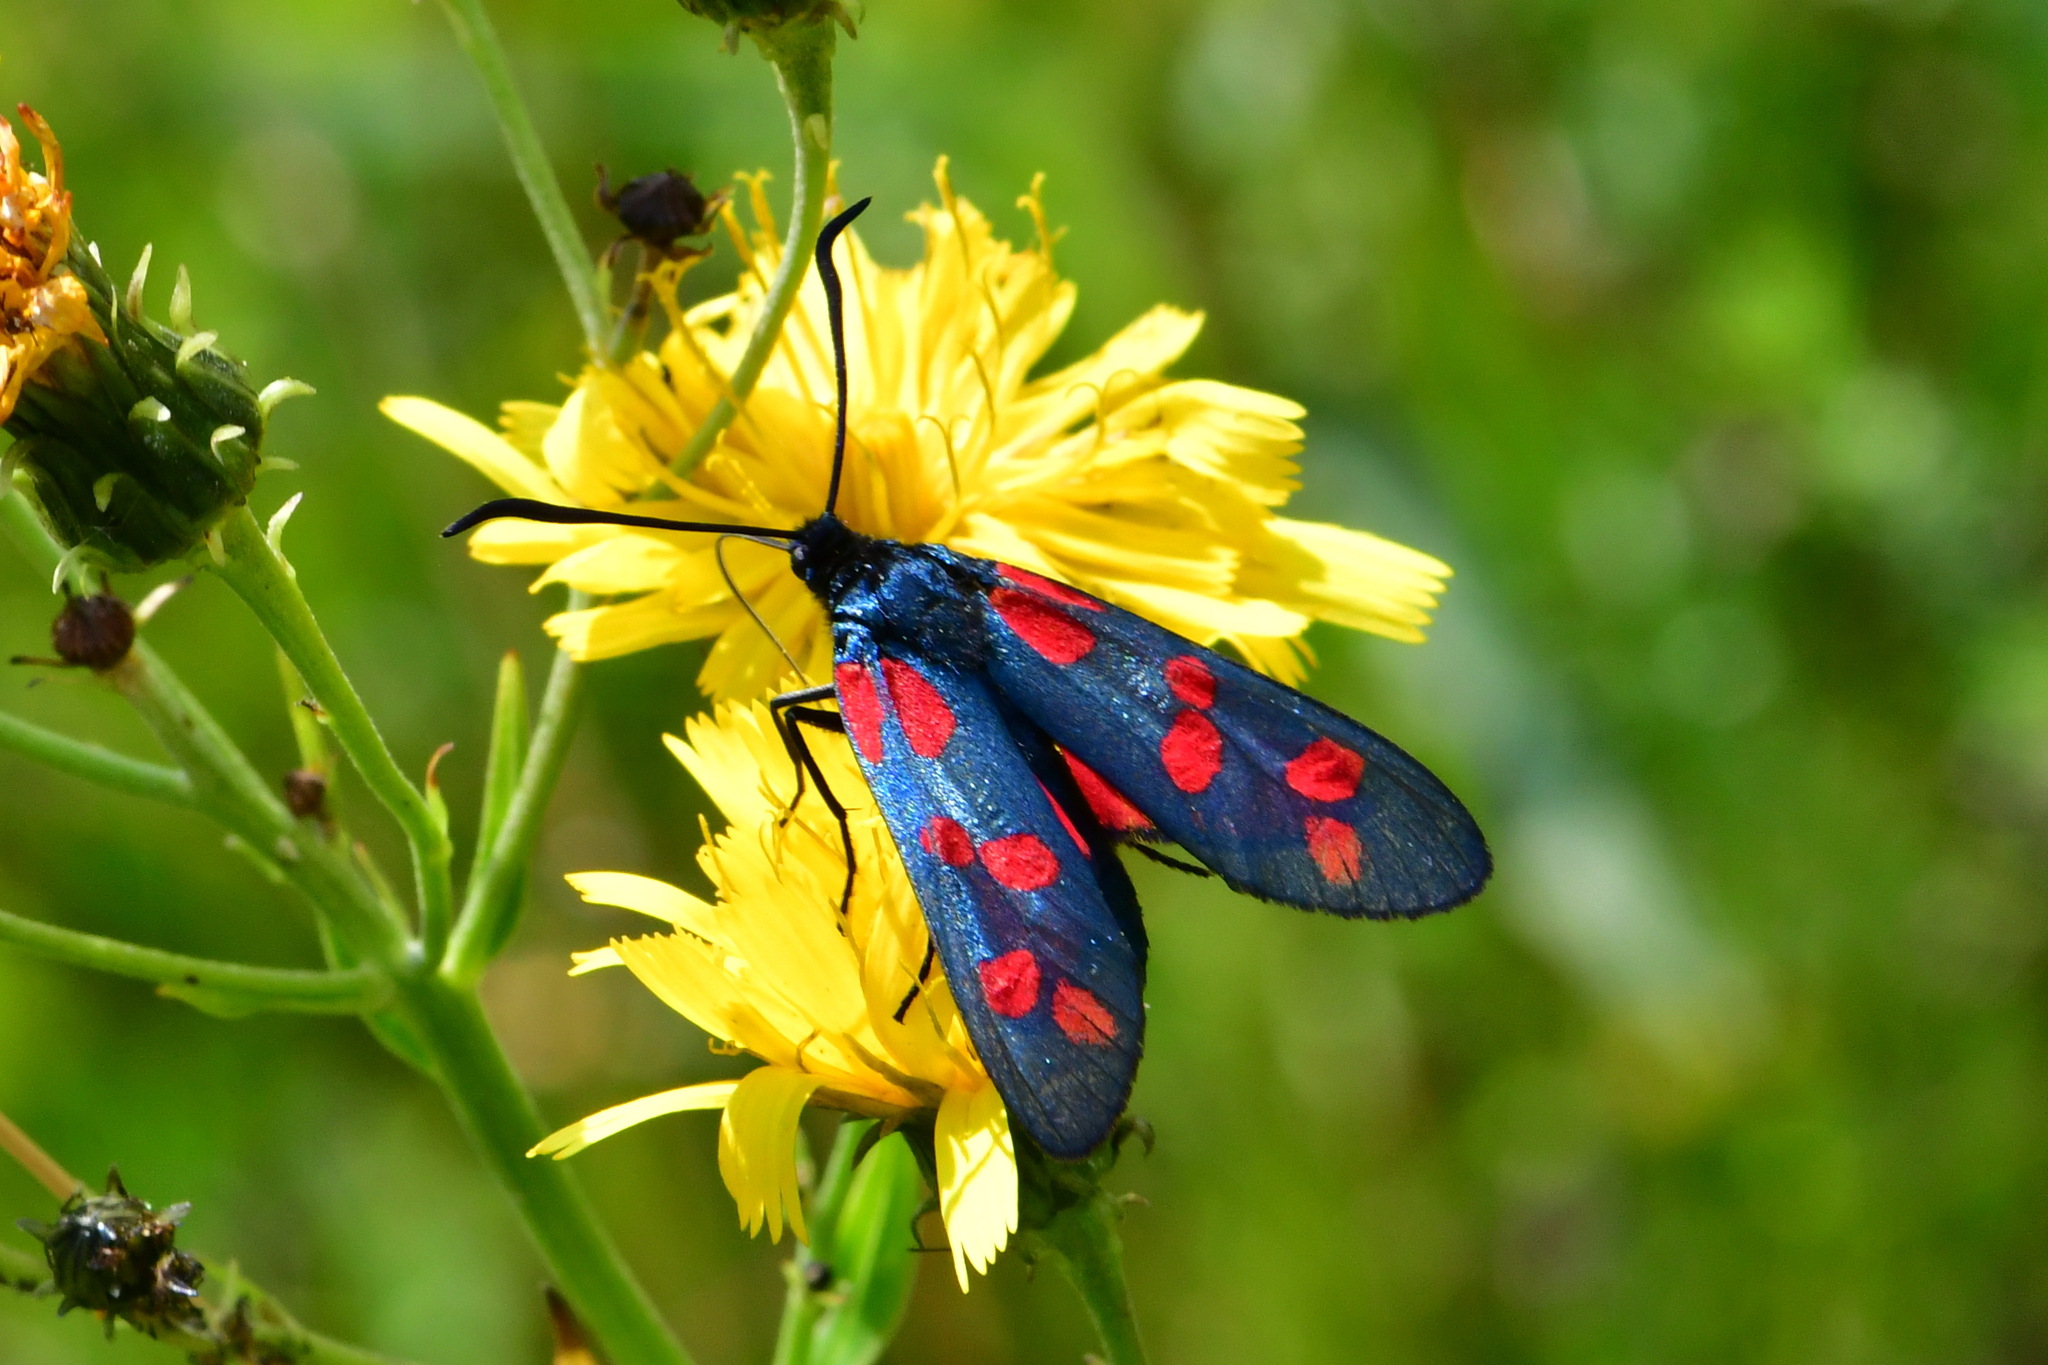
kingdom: Animalia
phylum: Arthropoda
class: Insecta
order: Lepidoptera
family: Zygaenidae
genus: Zygaena
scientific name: Zygaena filipendulae
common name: Six-spot burnet
